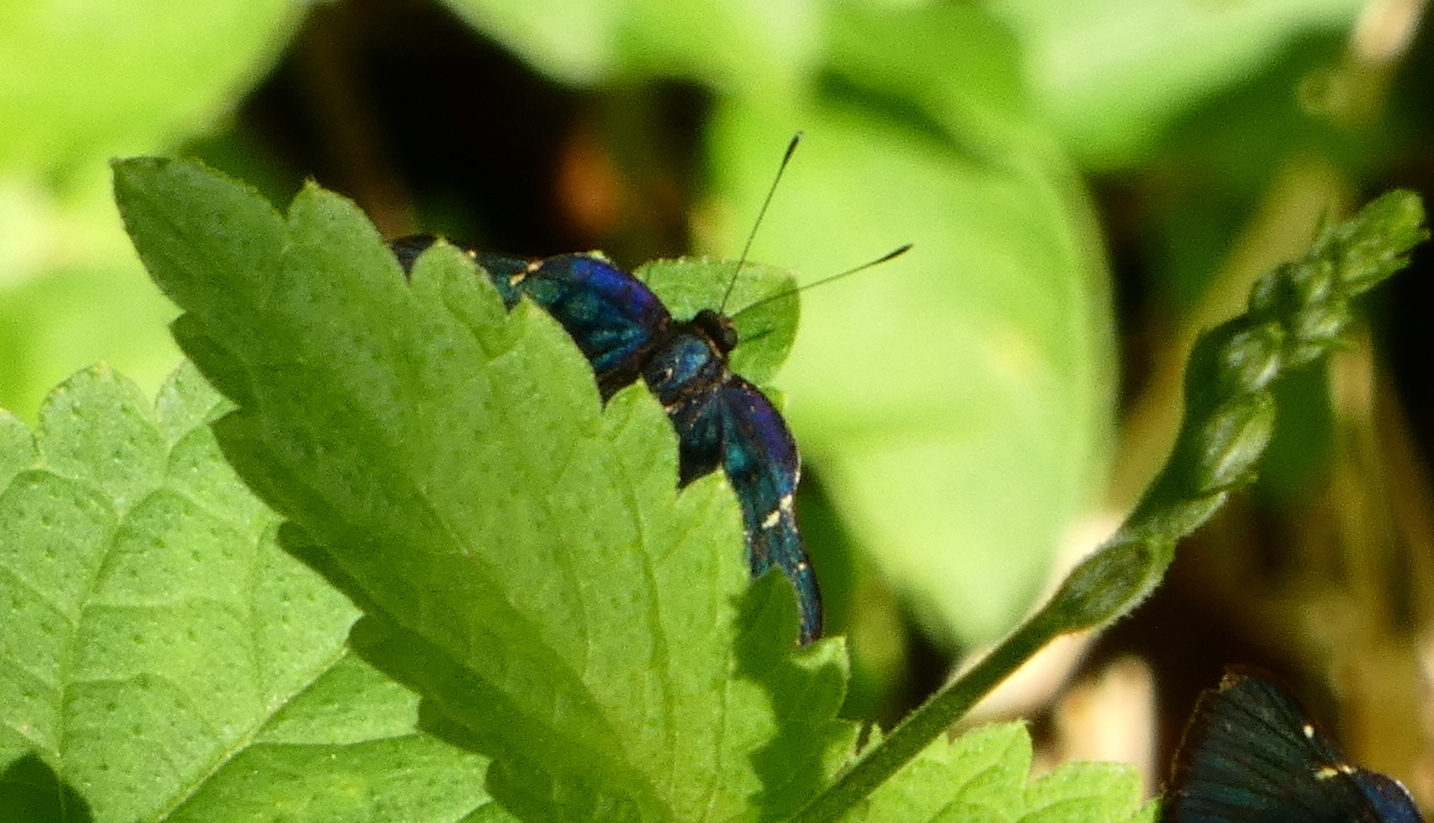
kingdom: Animalia
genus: Symmachia
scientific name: Symmachia atlantica
